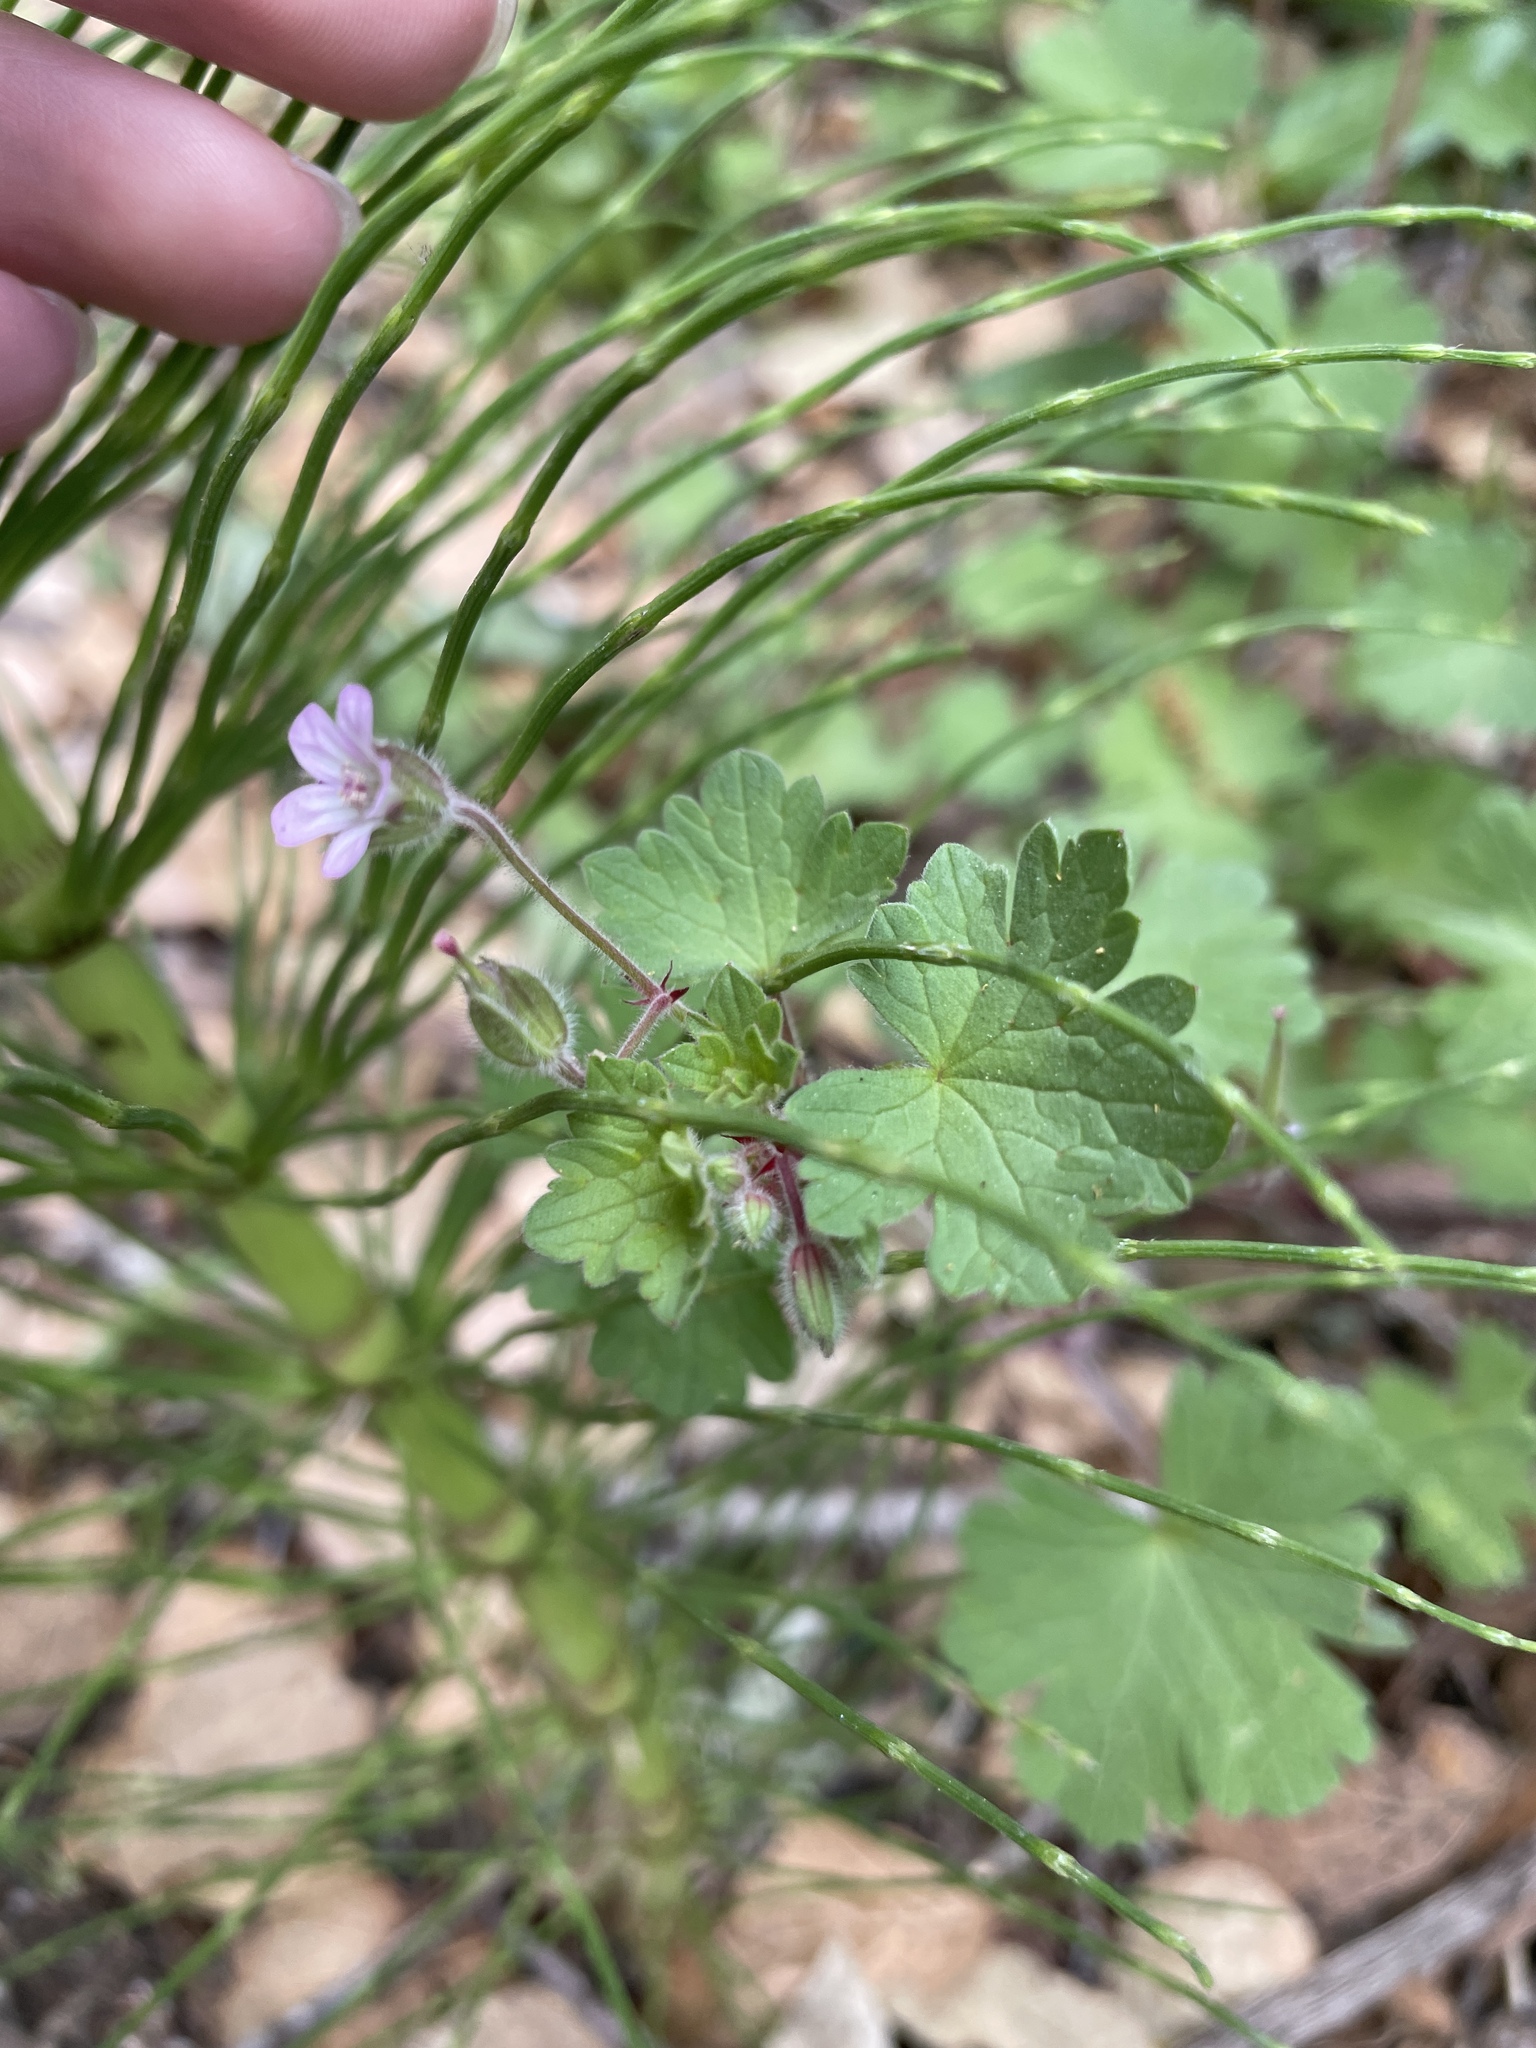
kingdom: Plantae
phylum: Tracheophyta
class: Magnoliopsida
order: Geraniales
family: Geraniaceae
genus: Geranium
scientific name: Geranium rotundifolium
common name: Round-leaved crane's-bill
